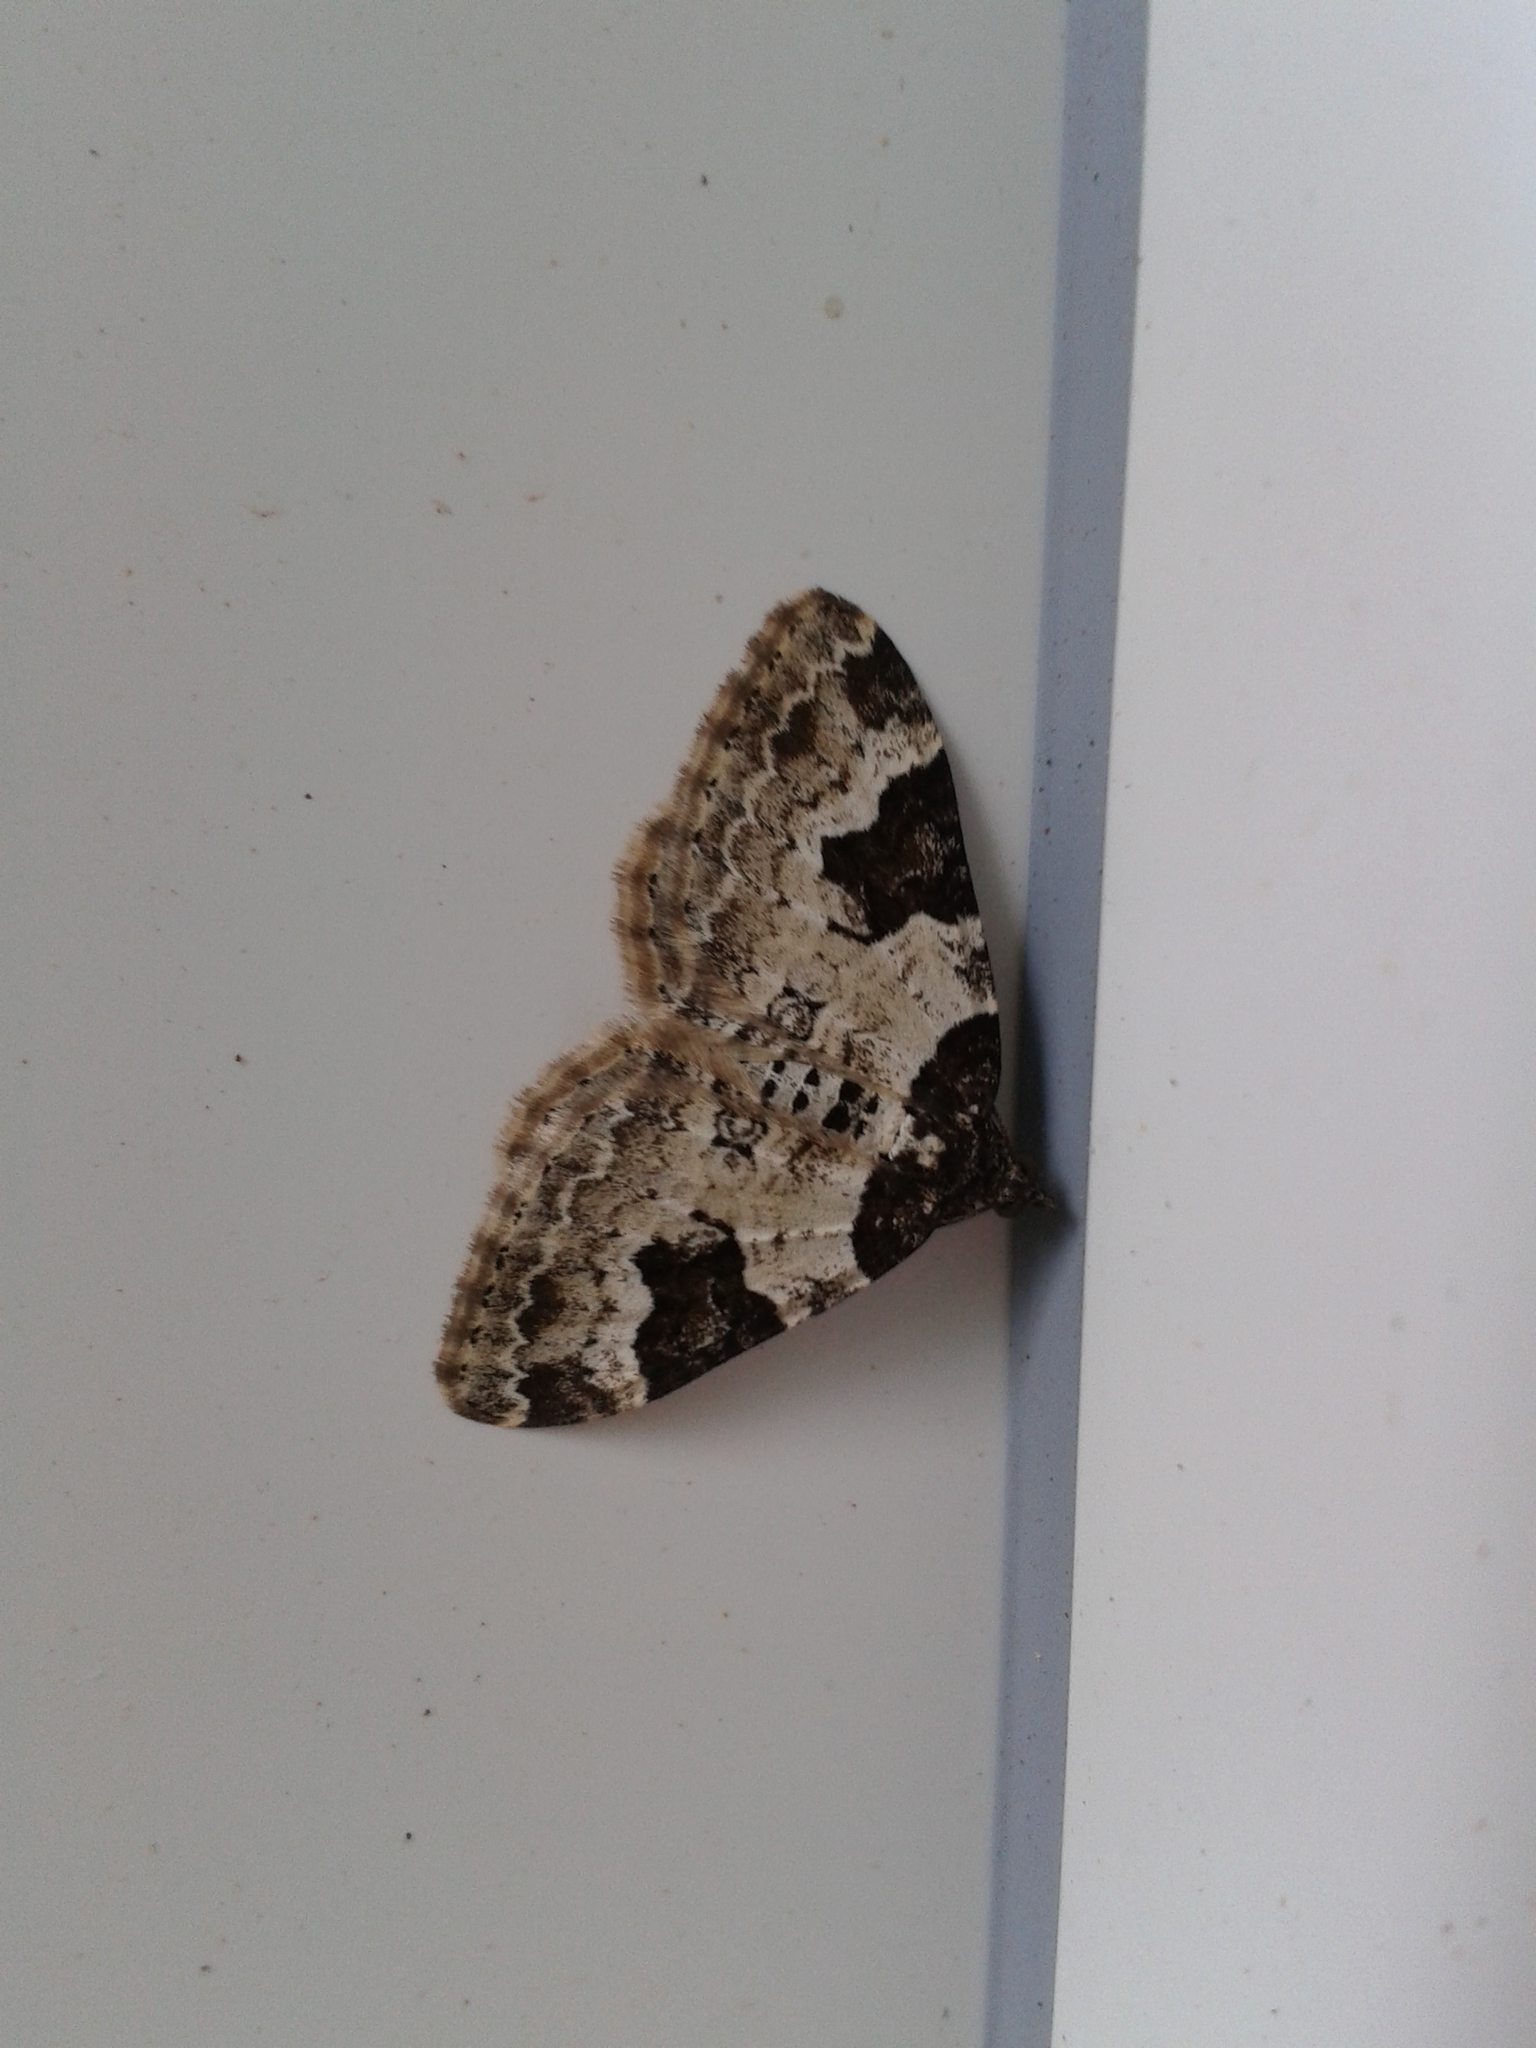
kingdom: Animalia
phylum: Arthropoda
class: Insecta
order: Lepidoptera
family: Geometridae
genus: Xanthorhoe
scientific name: Xanthorhoe fluctuata
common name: Garden carpet
